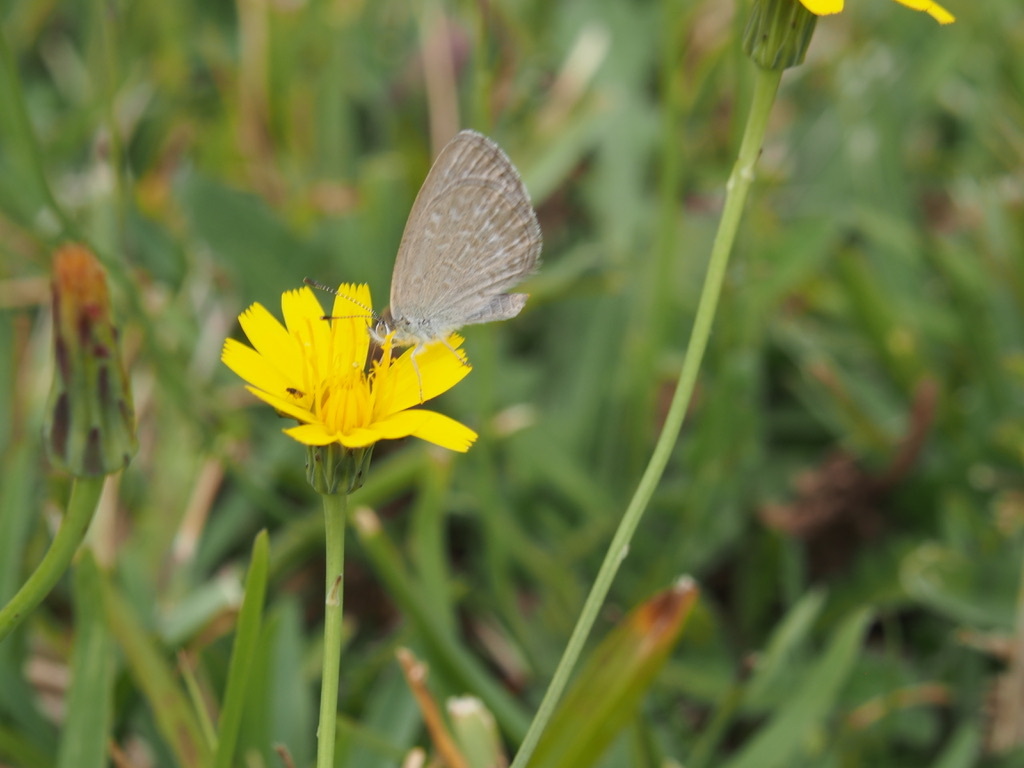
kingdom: Animalia
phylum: Arthropoda
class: Insecta
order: Lepidoptera
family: Lycaenidae
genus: Zizina
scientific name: Zizina otis
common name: Lesser grass blue
